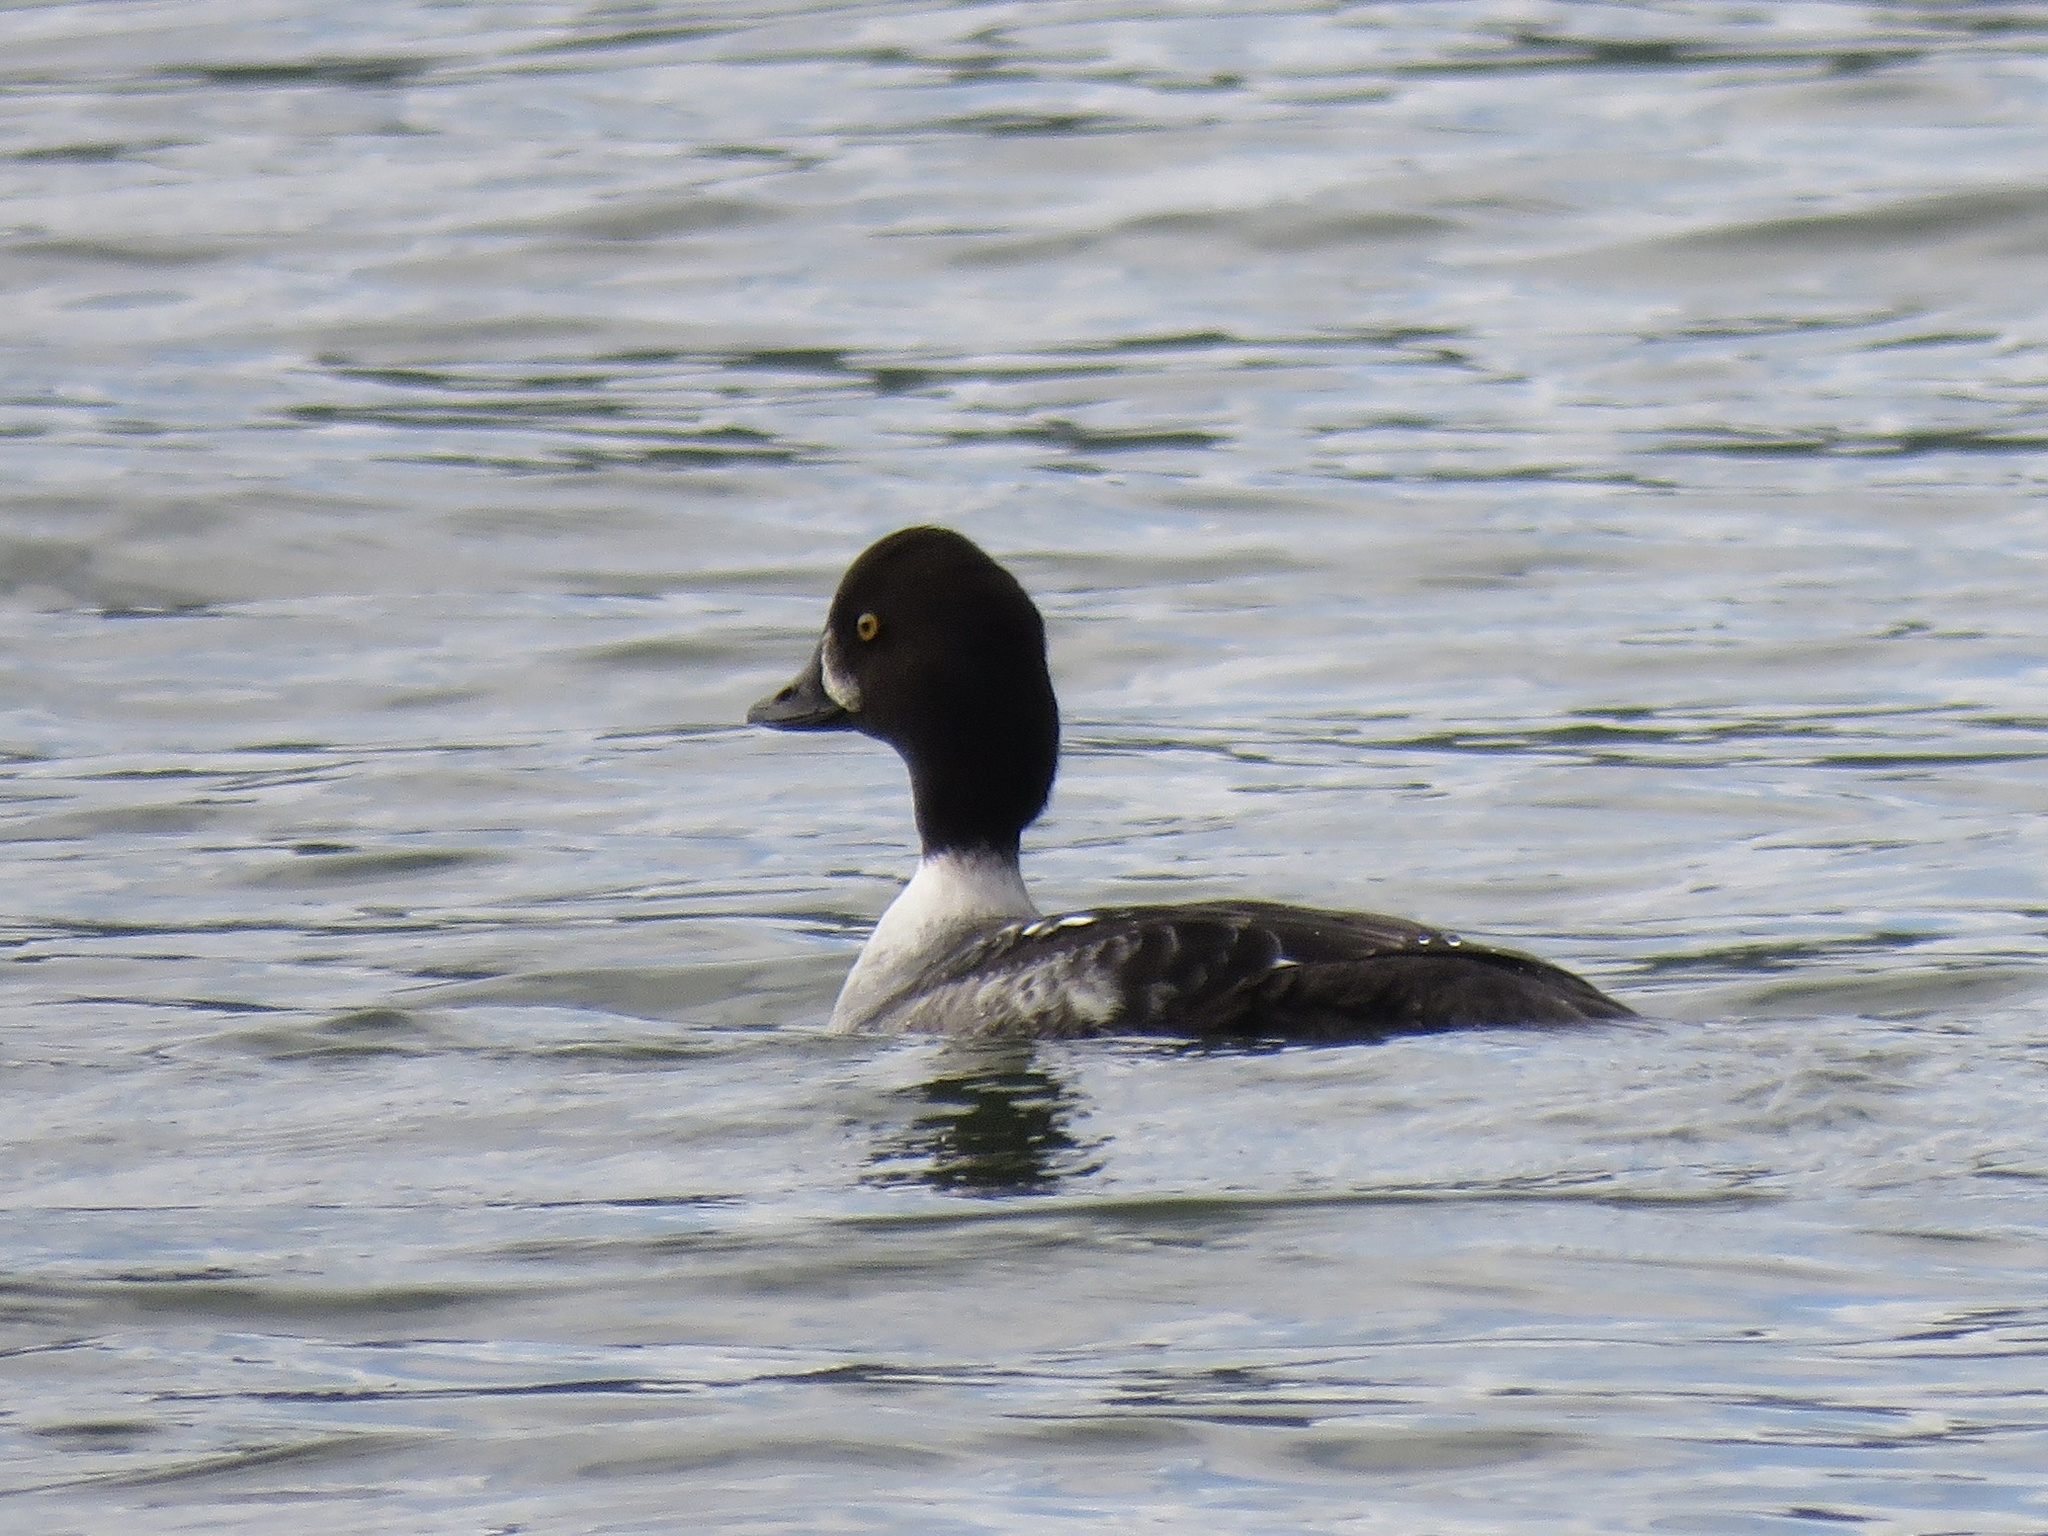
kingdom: Animalia
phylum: Chordata
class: Aves
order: Anseriformes
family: Anatidae
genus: Bucephala
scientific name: Bucephala islandica
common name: Barrow's goldeneye
